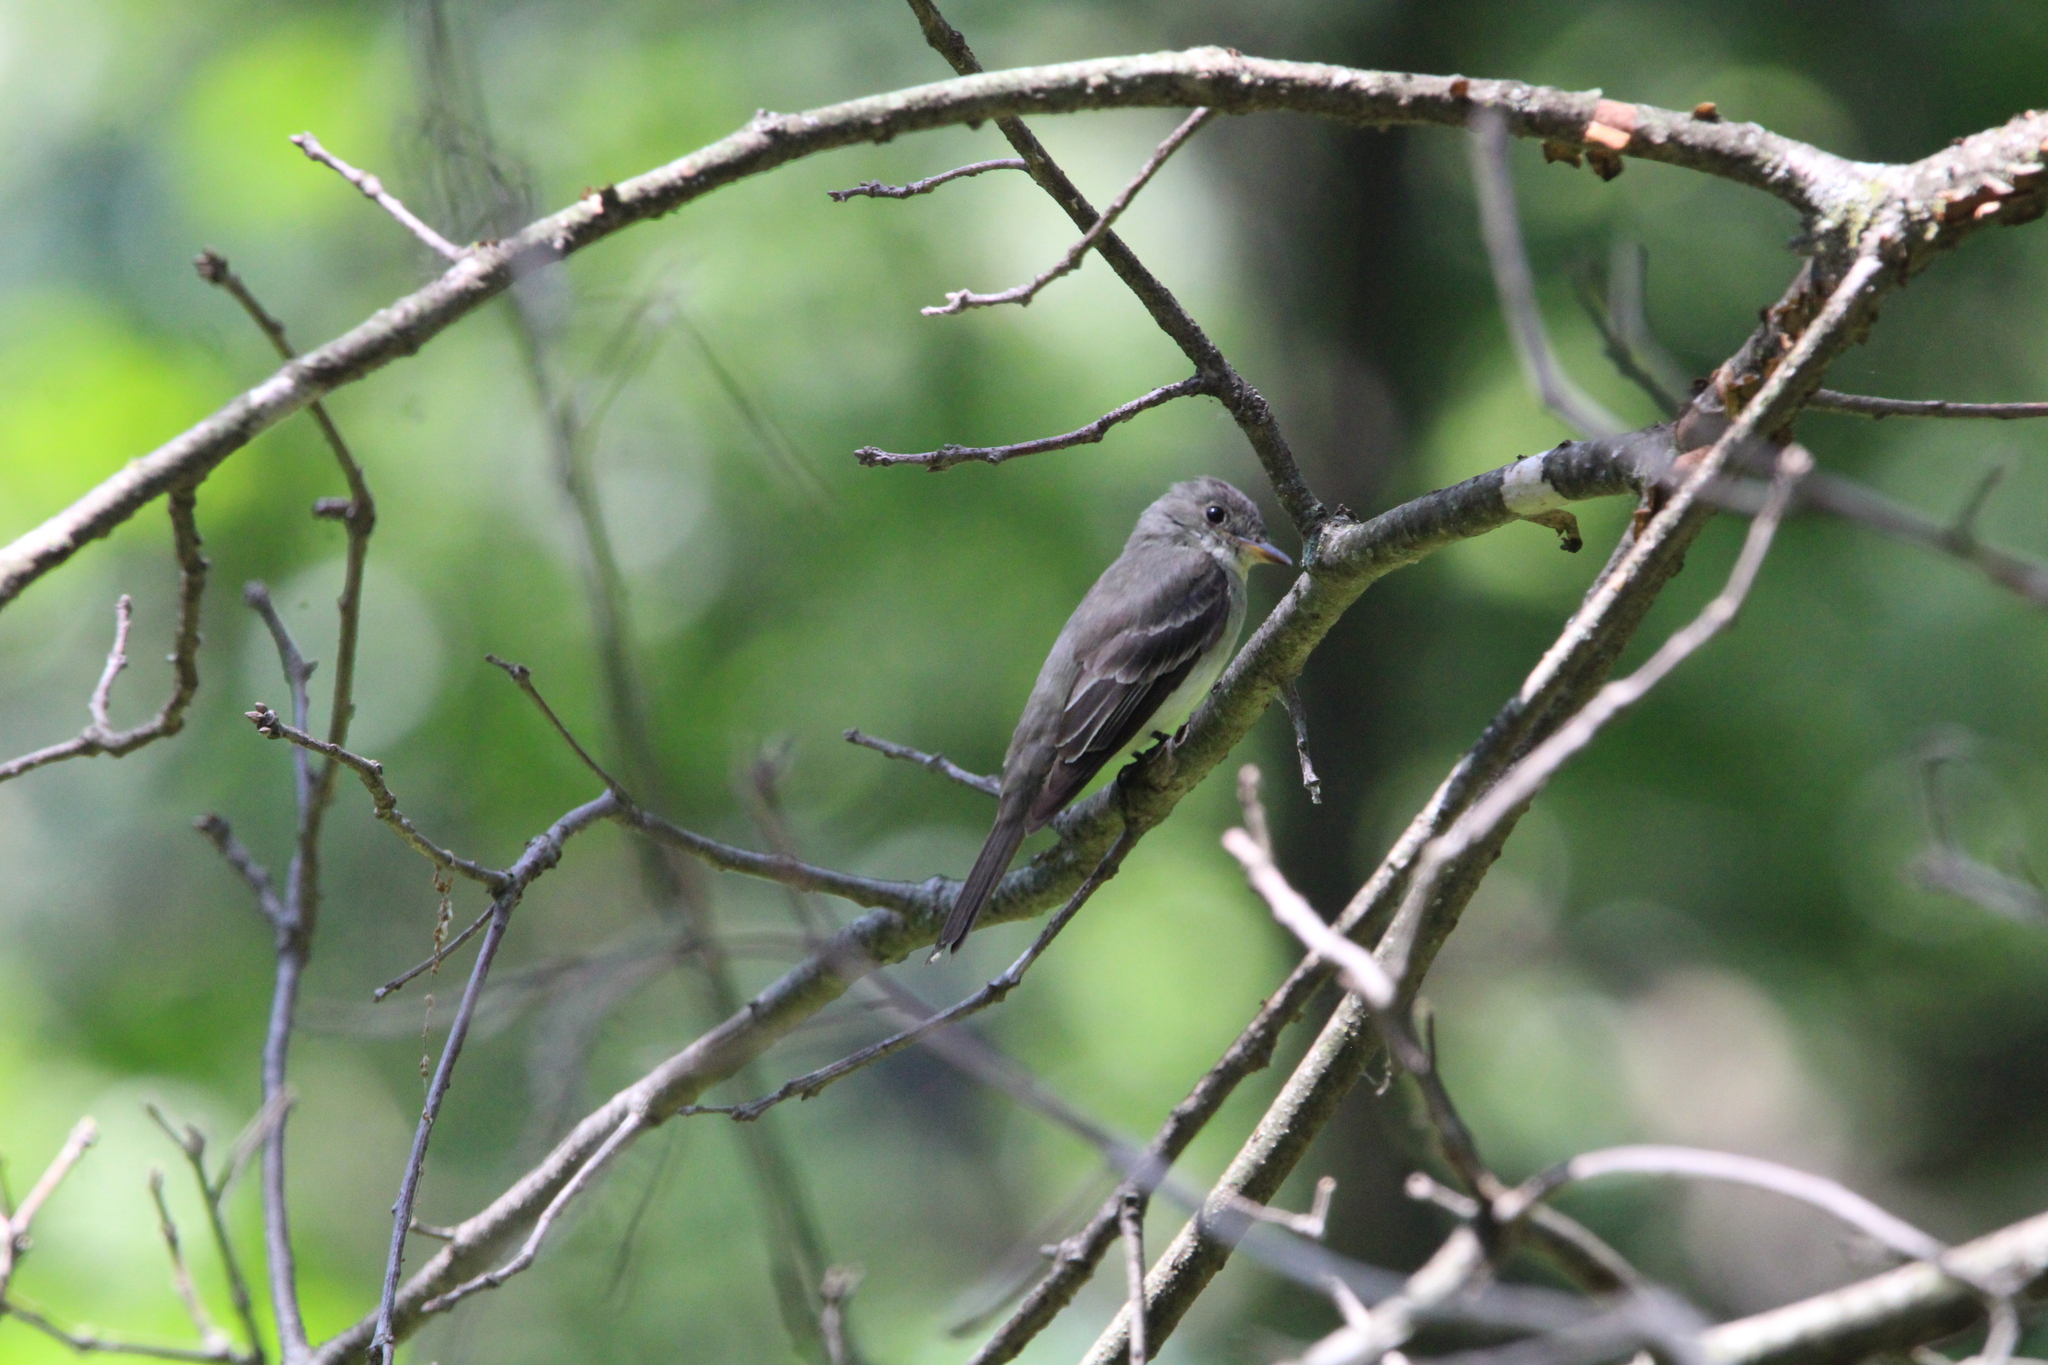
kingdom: Animalia
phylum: Chordata
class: Aves
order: Passeriformes
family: Tyrannidae
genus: Contopus
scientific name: Contopus virens
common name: Eastern wood-pewee
